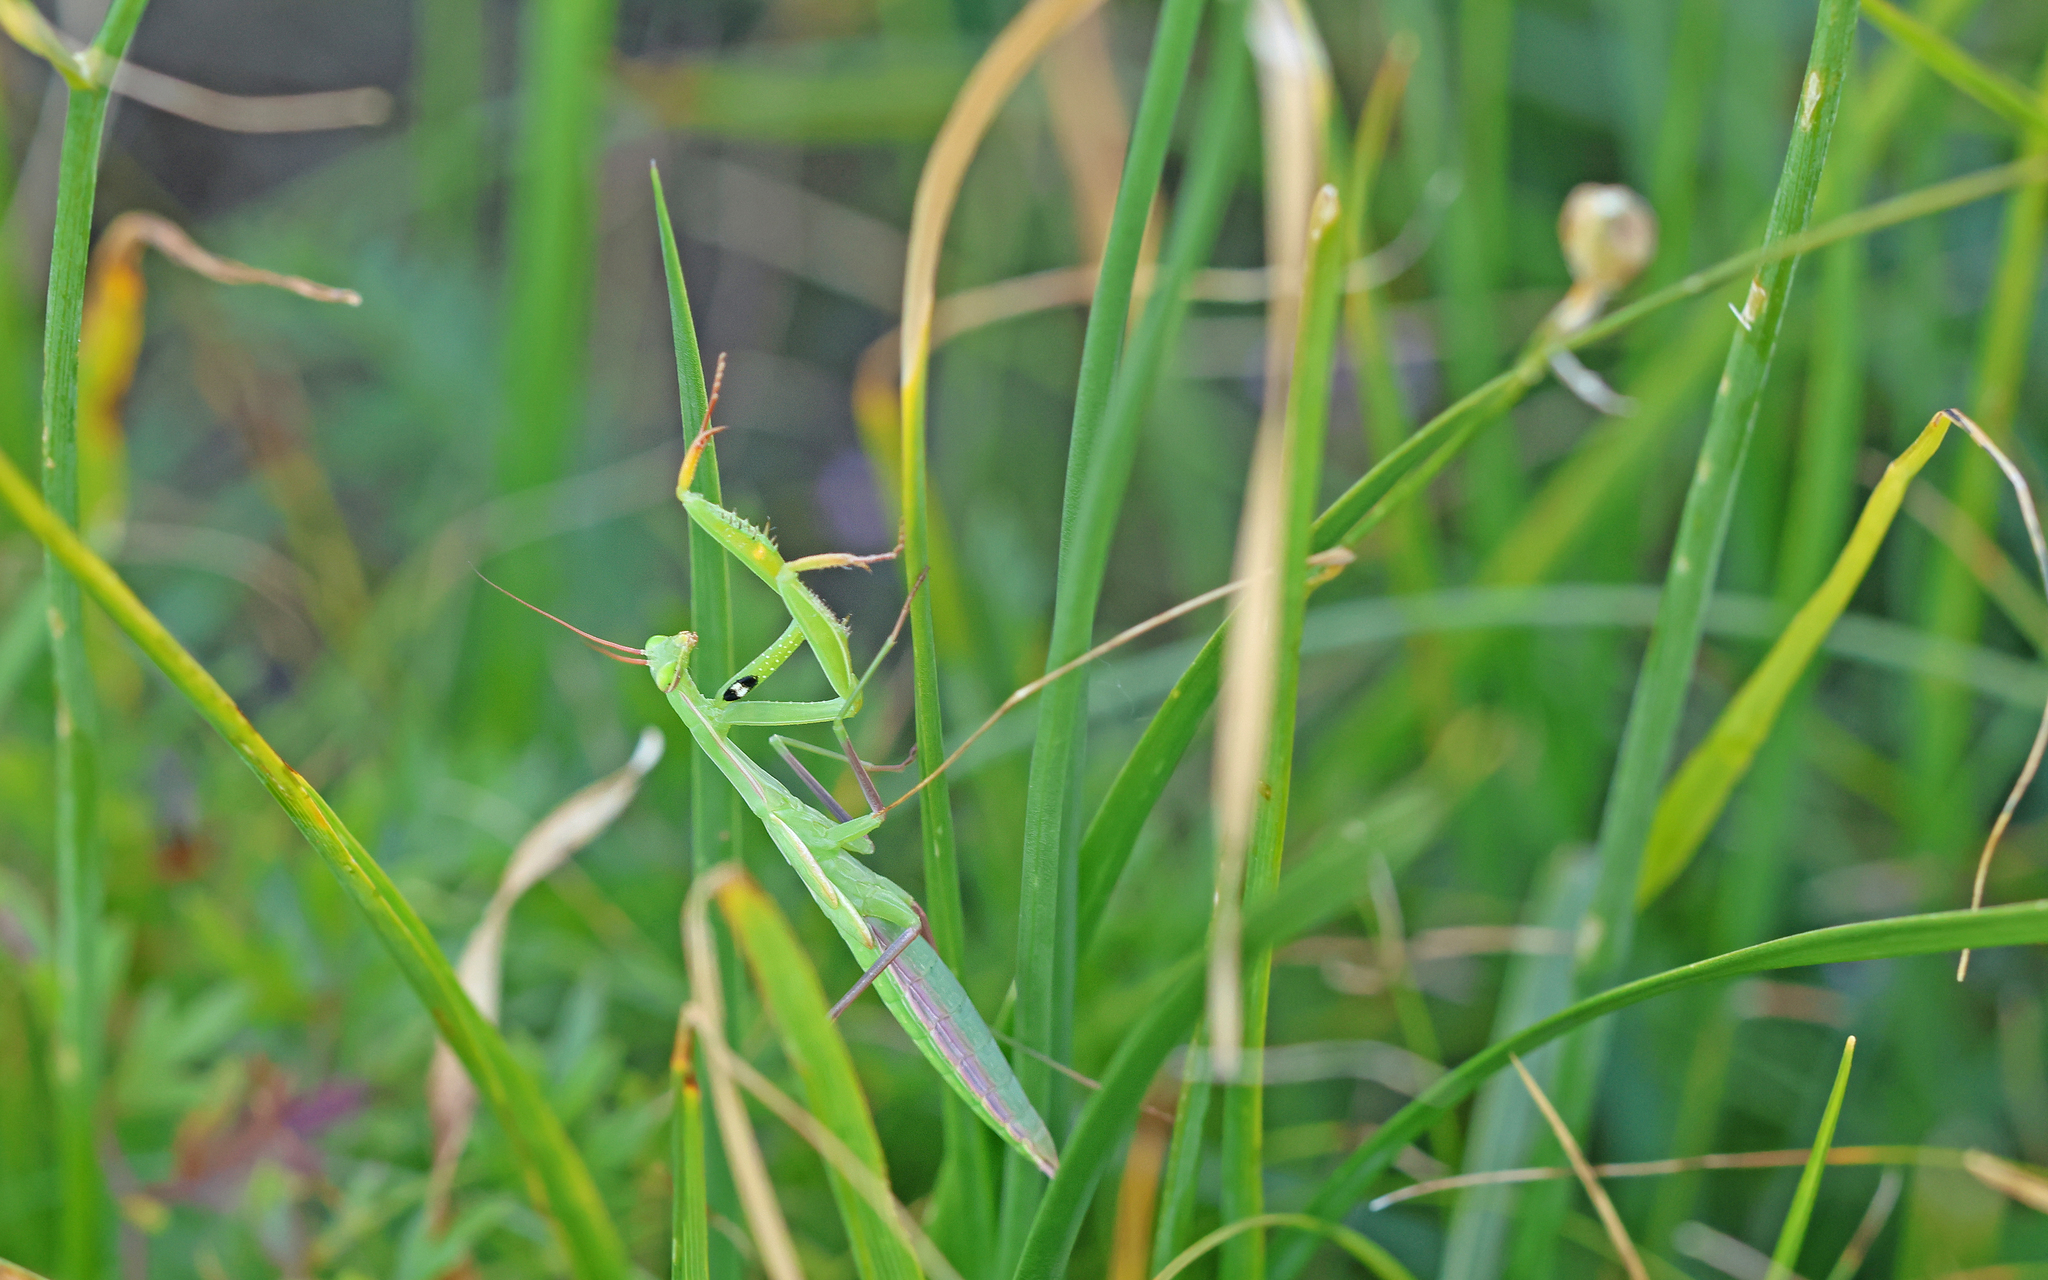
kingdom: Animalia
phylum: Arthropoda
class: Insecta
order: Mantodea
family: Mantidae
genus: Mantis
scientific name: Mantis religiosa
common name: Praying mantis
